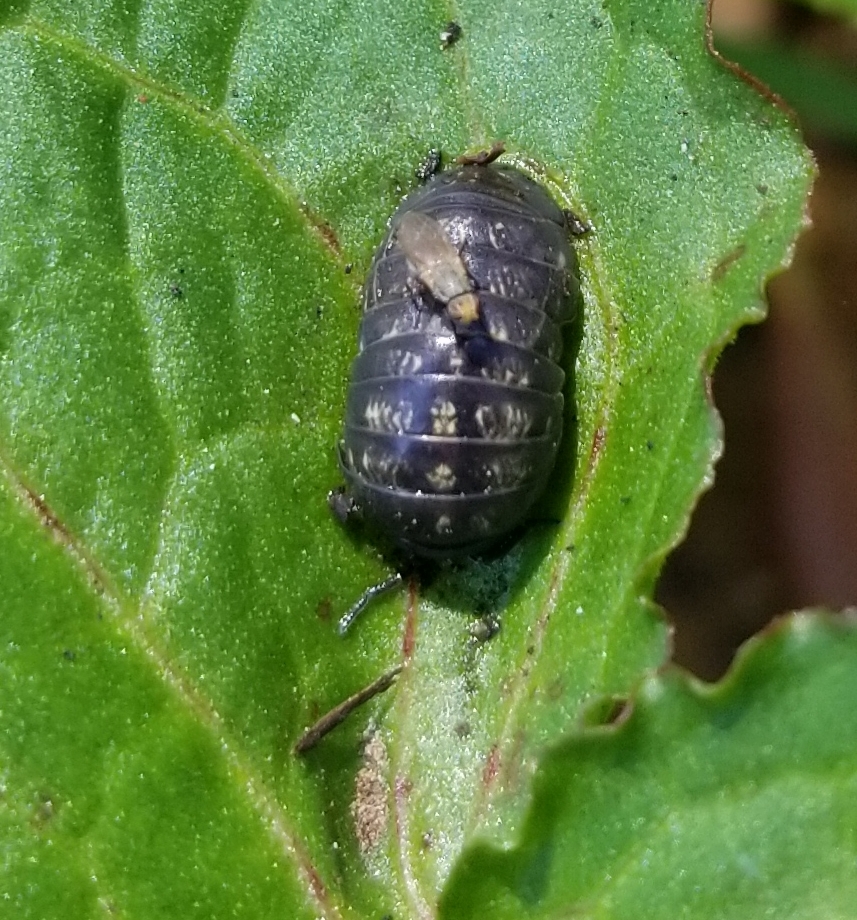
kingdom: Animalia
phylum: Arthropoda
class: Malacostraca
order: Isopoda
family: Armadillidiidae
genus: Armadillidium
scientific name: Armadillidium vulgare
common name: Common pill woodlouse
